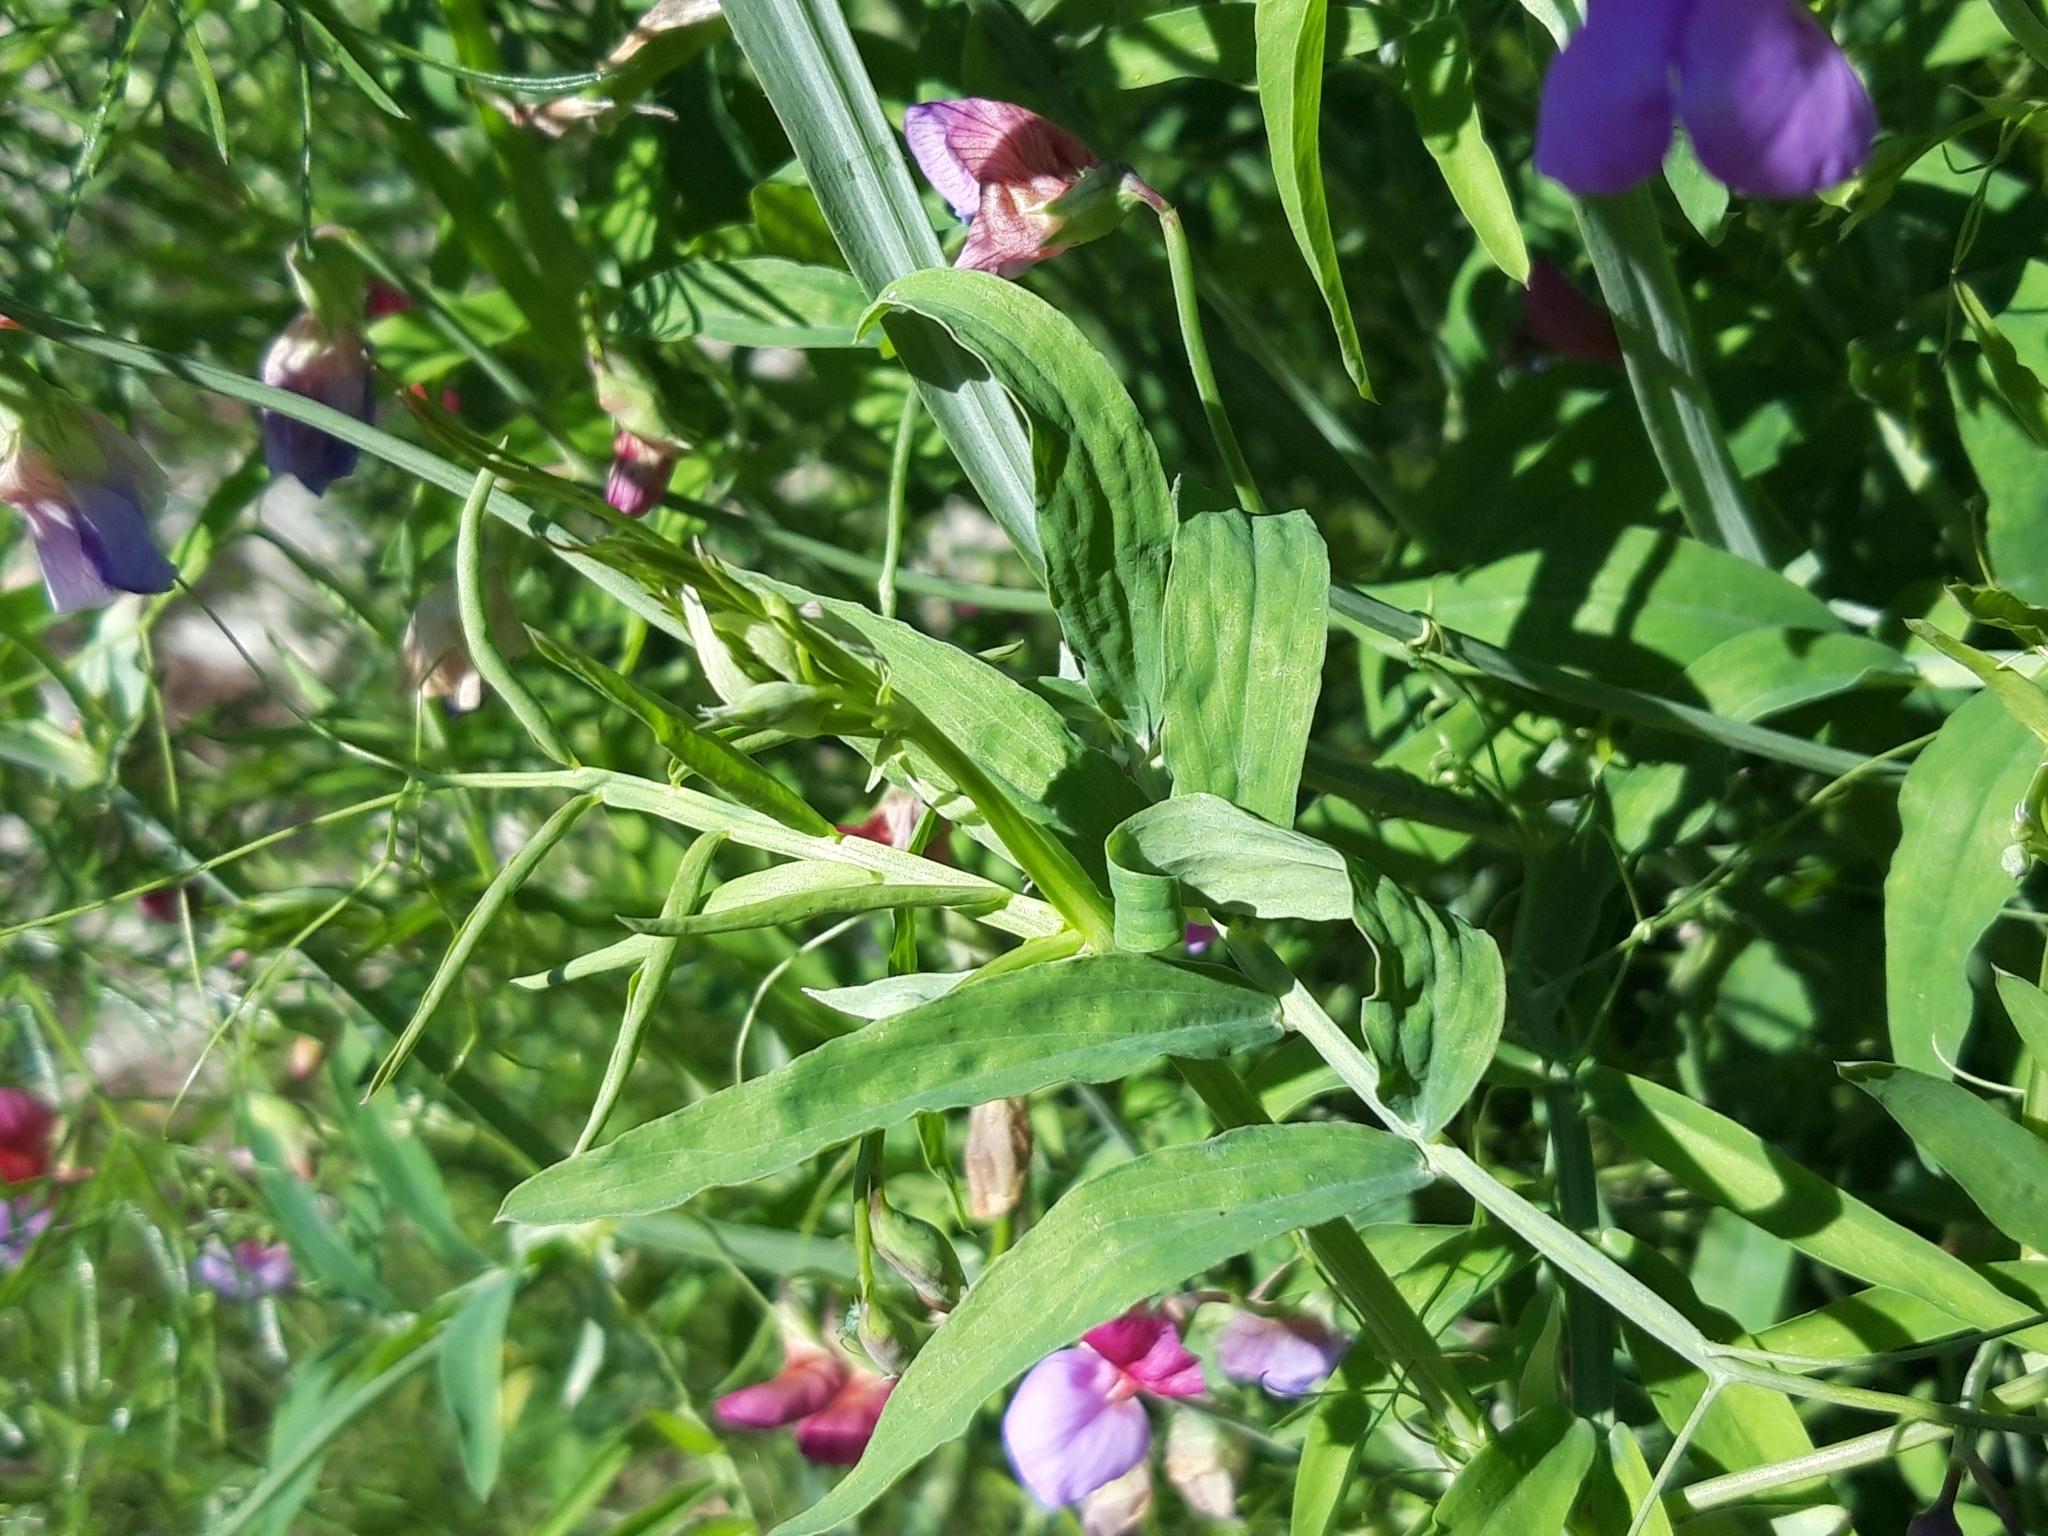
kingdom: Plantae
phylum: Tracheophyta
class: Magnoliopsida
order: Fabales
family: Fabaceae
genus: Lathyrus
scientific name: Lathyrus clymenum
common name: Spanish vetchling
